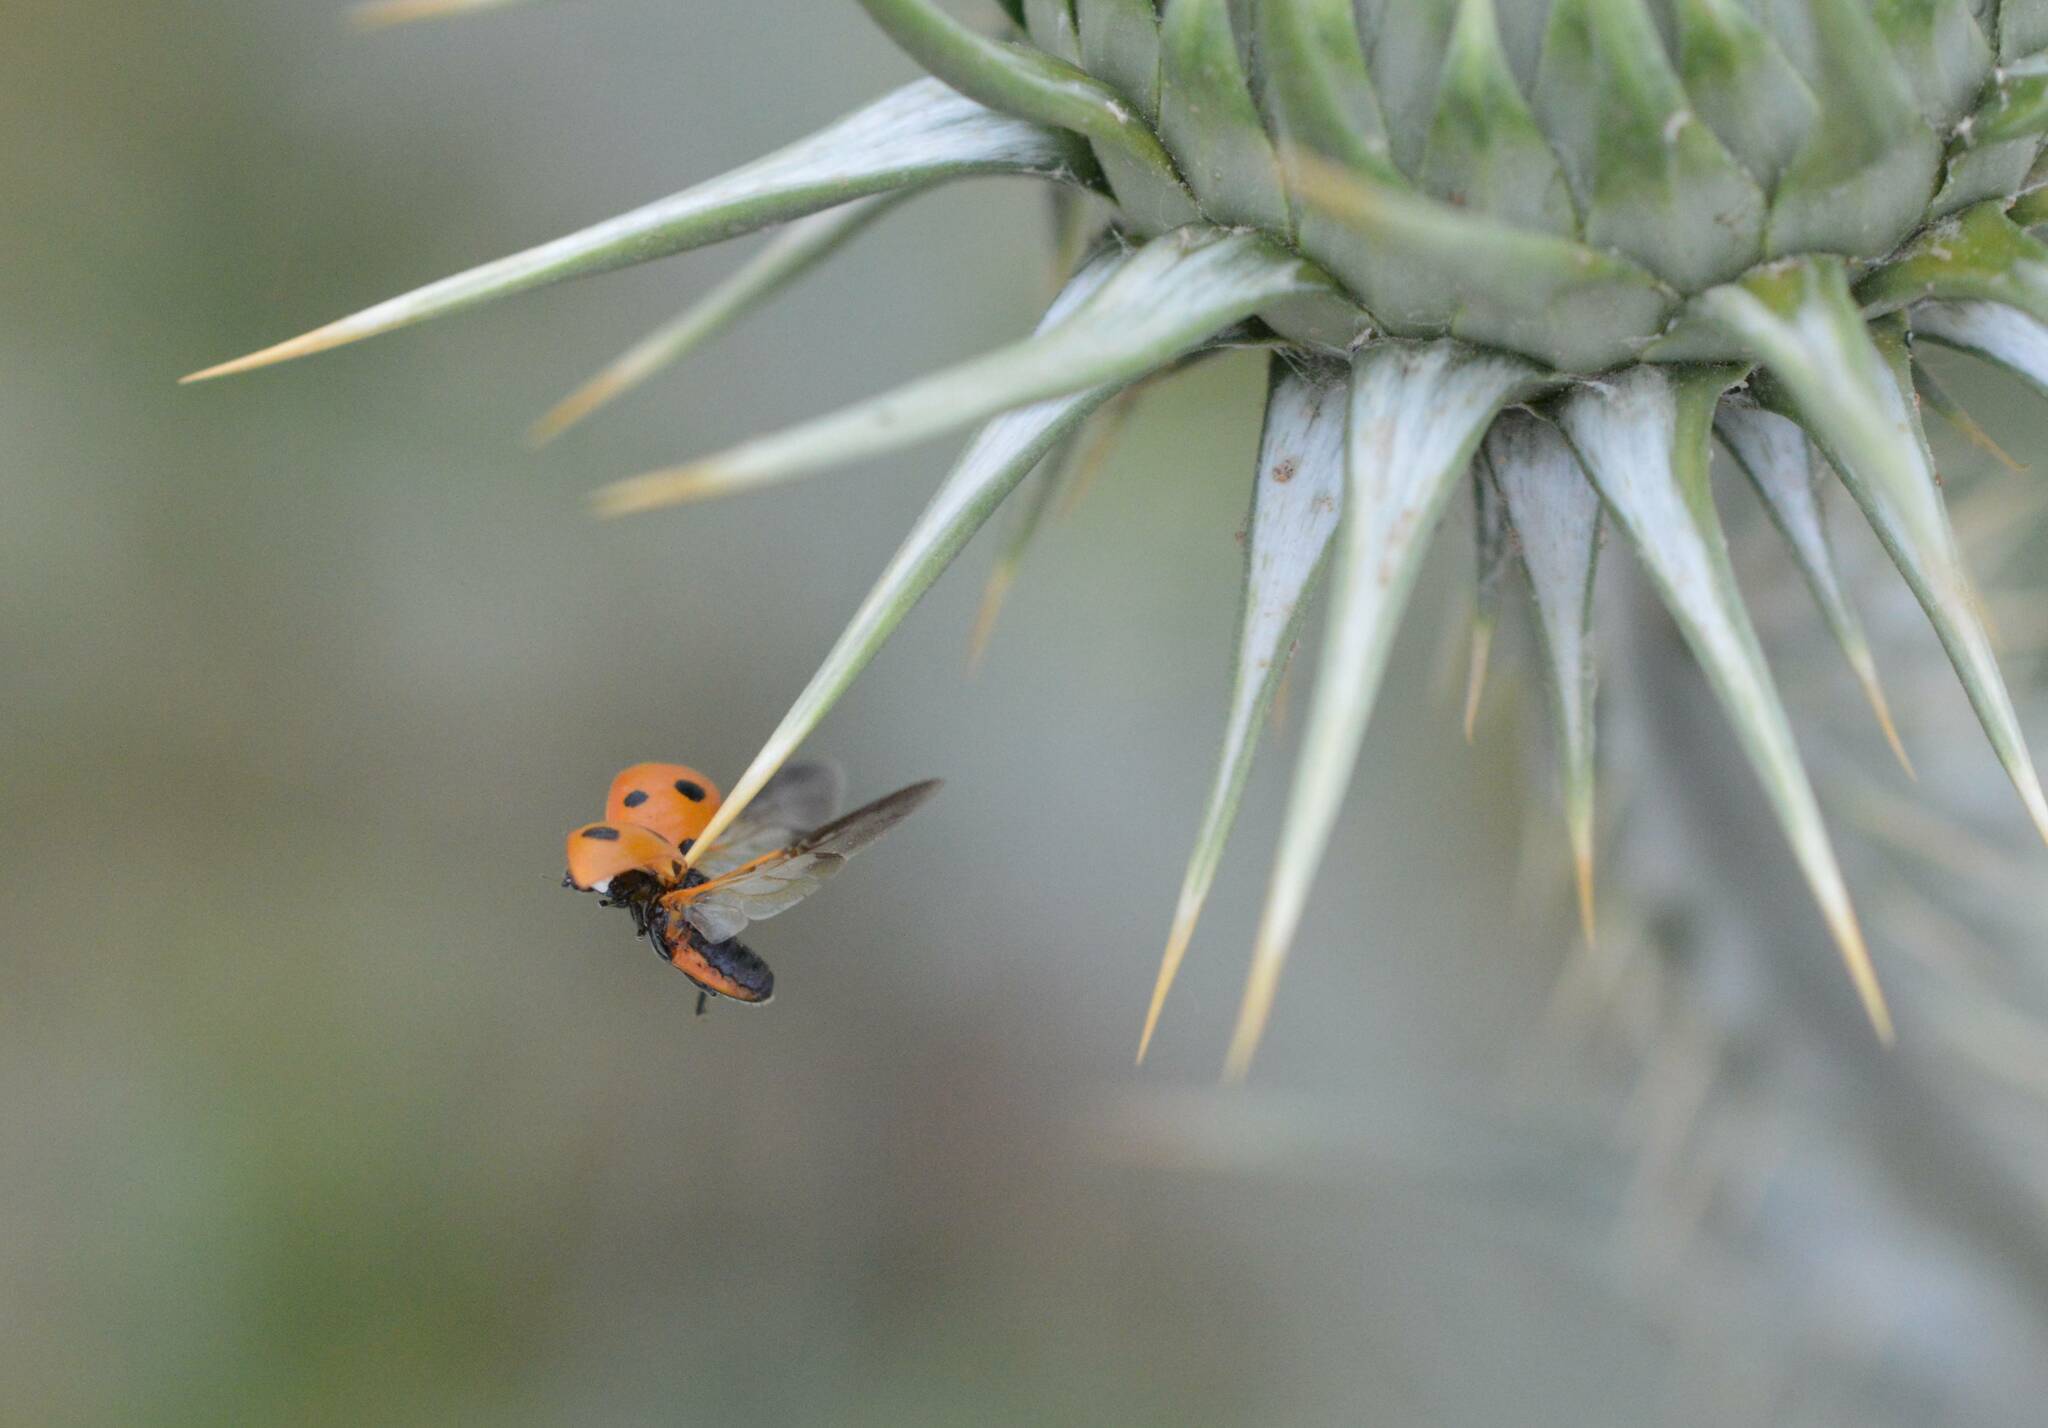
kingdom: Animalia
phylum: Arthropoda
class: Insecta
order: Coleoptera
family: Coccinellidae
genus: Coccinella
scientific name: Coccinella algerica
